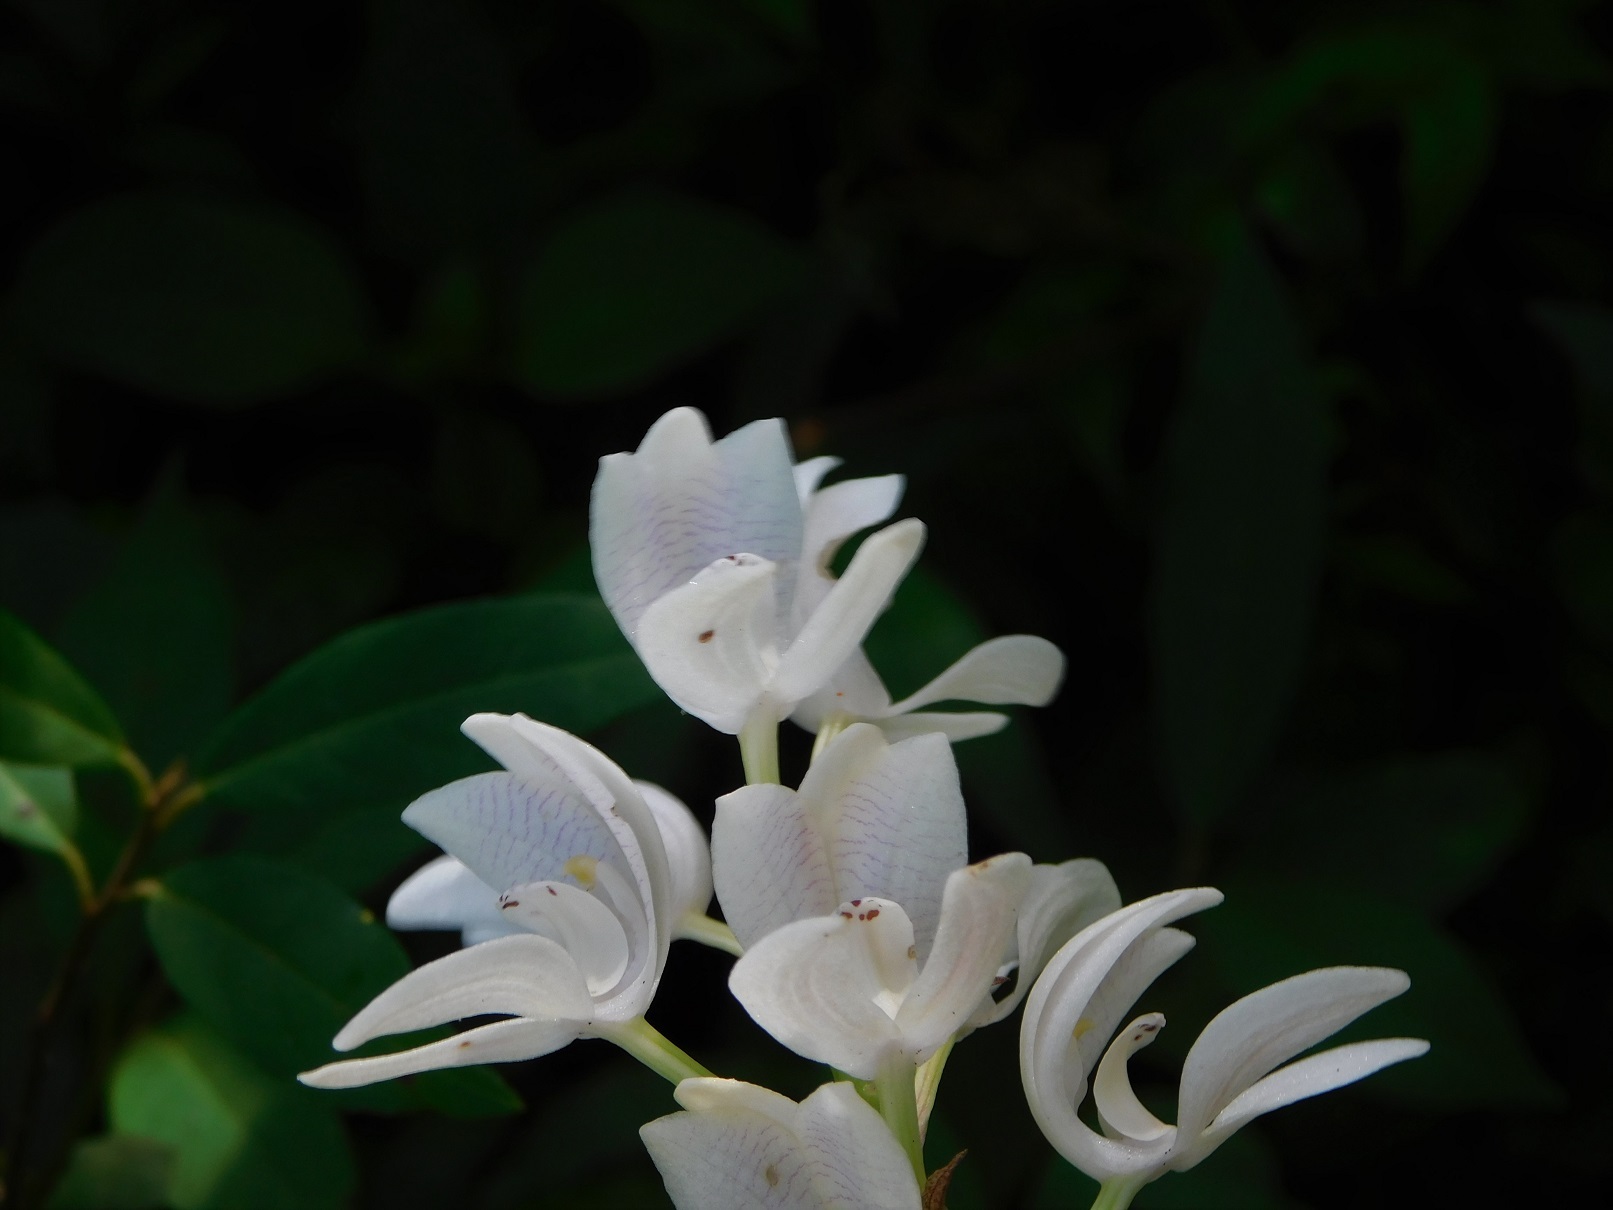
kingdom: Plantae
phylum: Tracheophyta
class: Liliopsida
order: Asparagales
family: Orchidaceae
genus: Govenia
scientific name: Govenia liliacea
